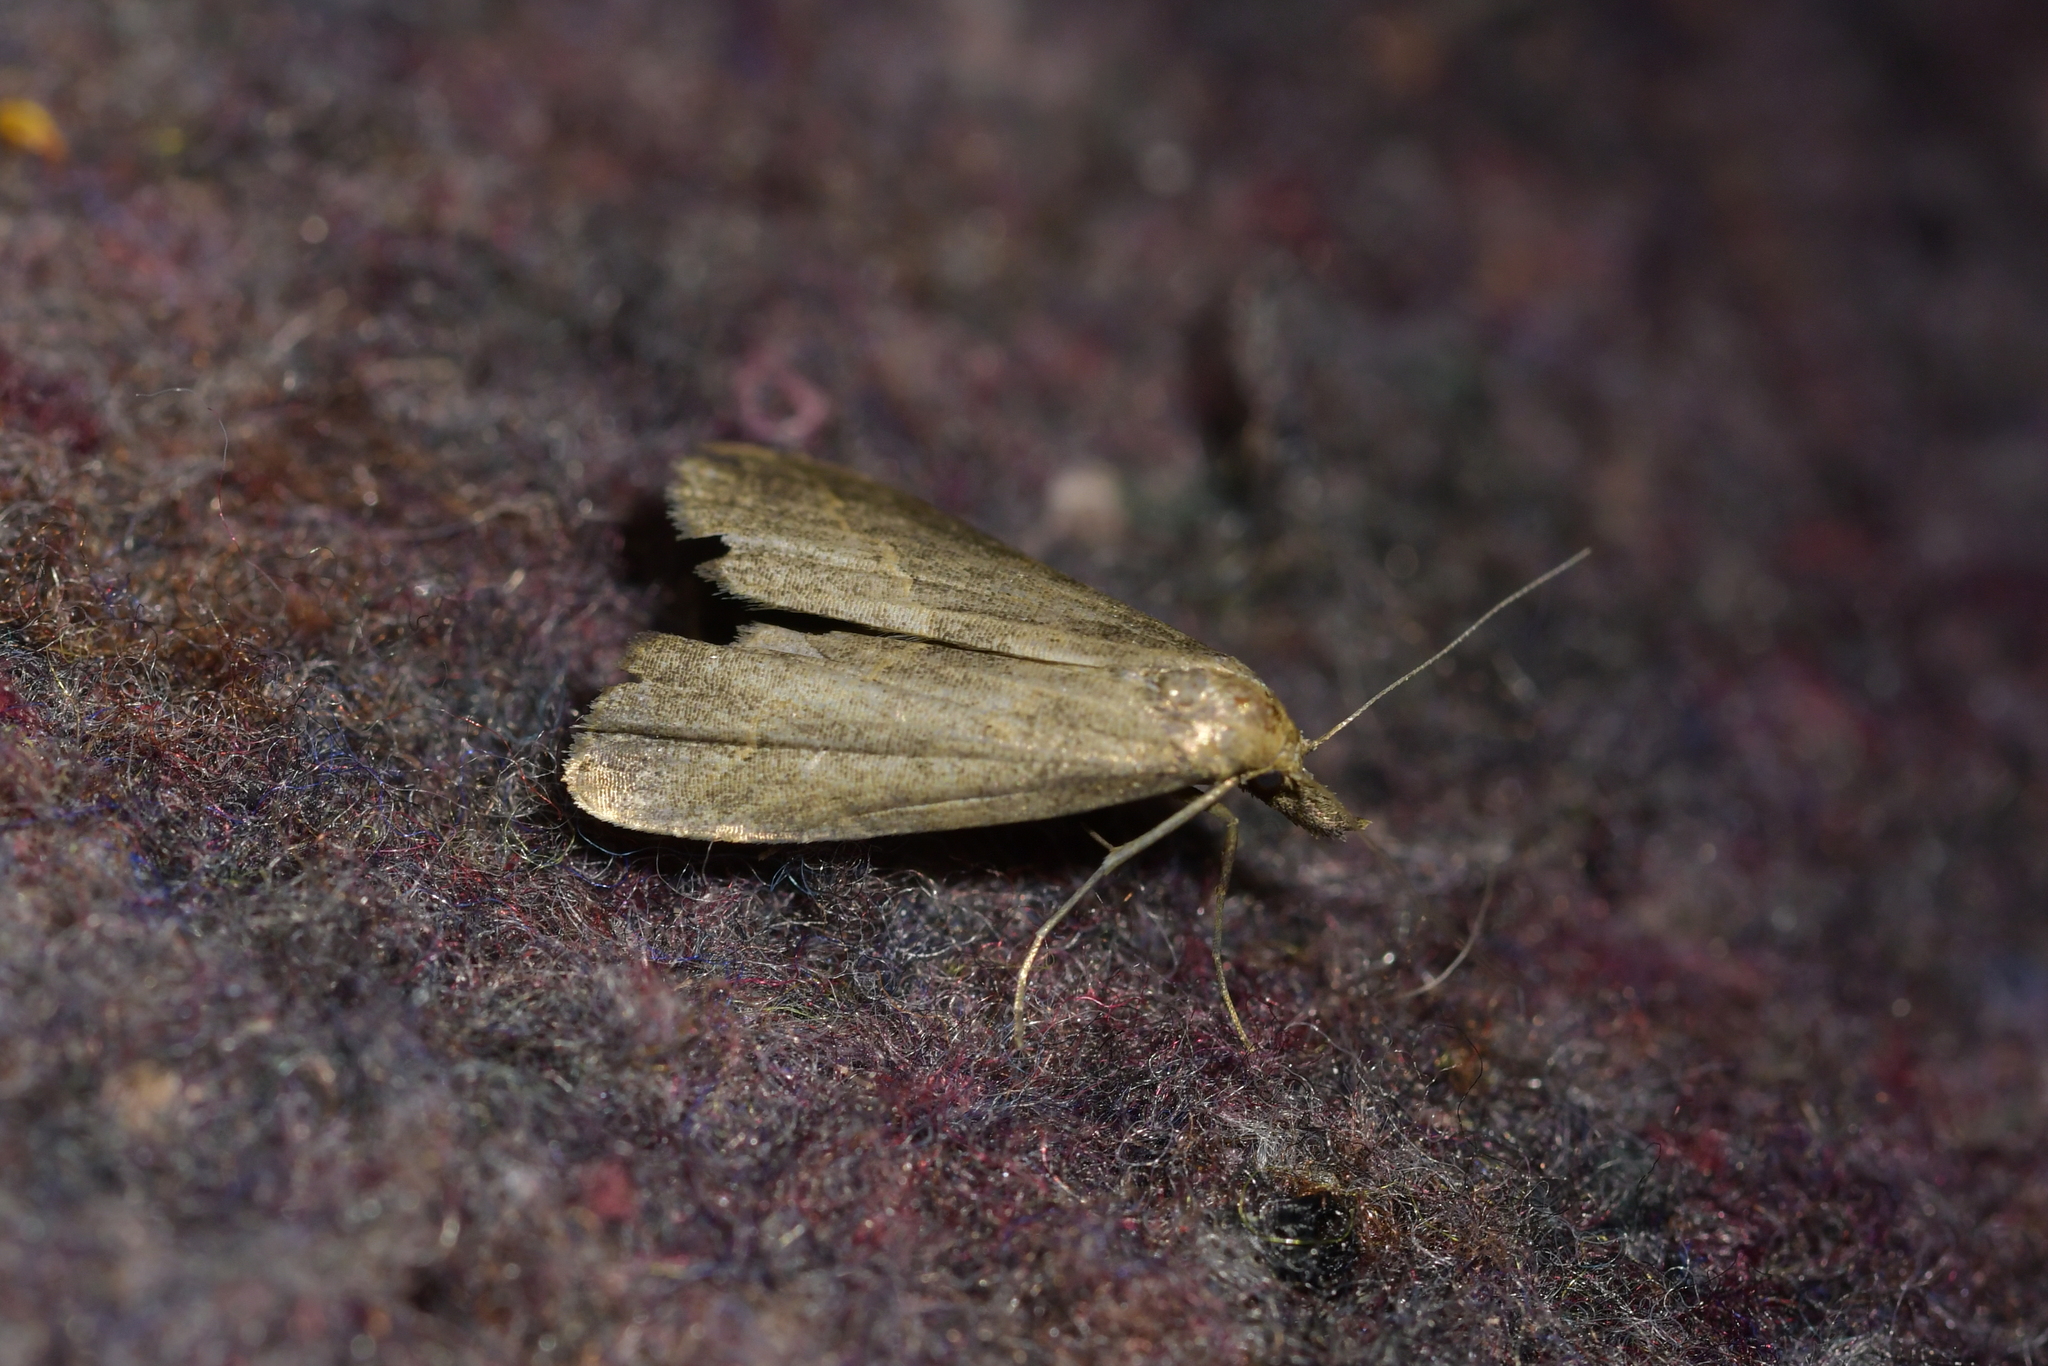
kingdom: Animalia
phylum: Arthropoda
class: Insecta
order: Lepidoptera
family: Erebidae
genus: Schrankia
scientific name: Schrankia costaestrigalis
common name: Pinion-streaked snout
